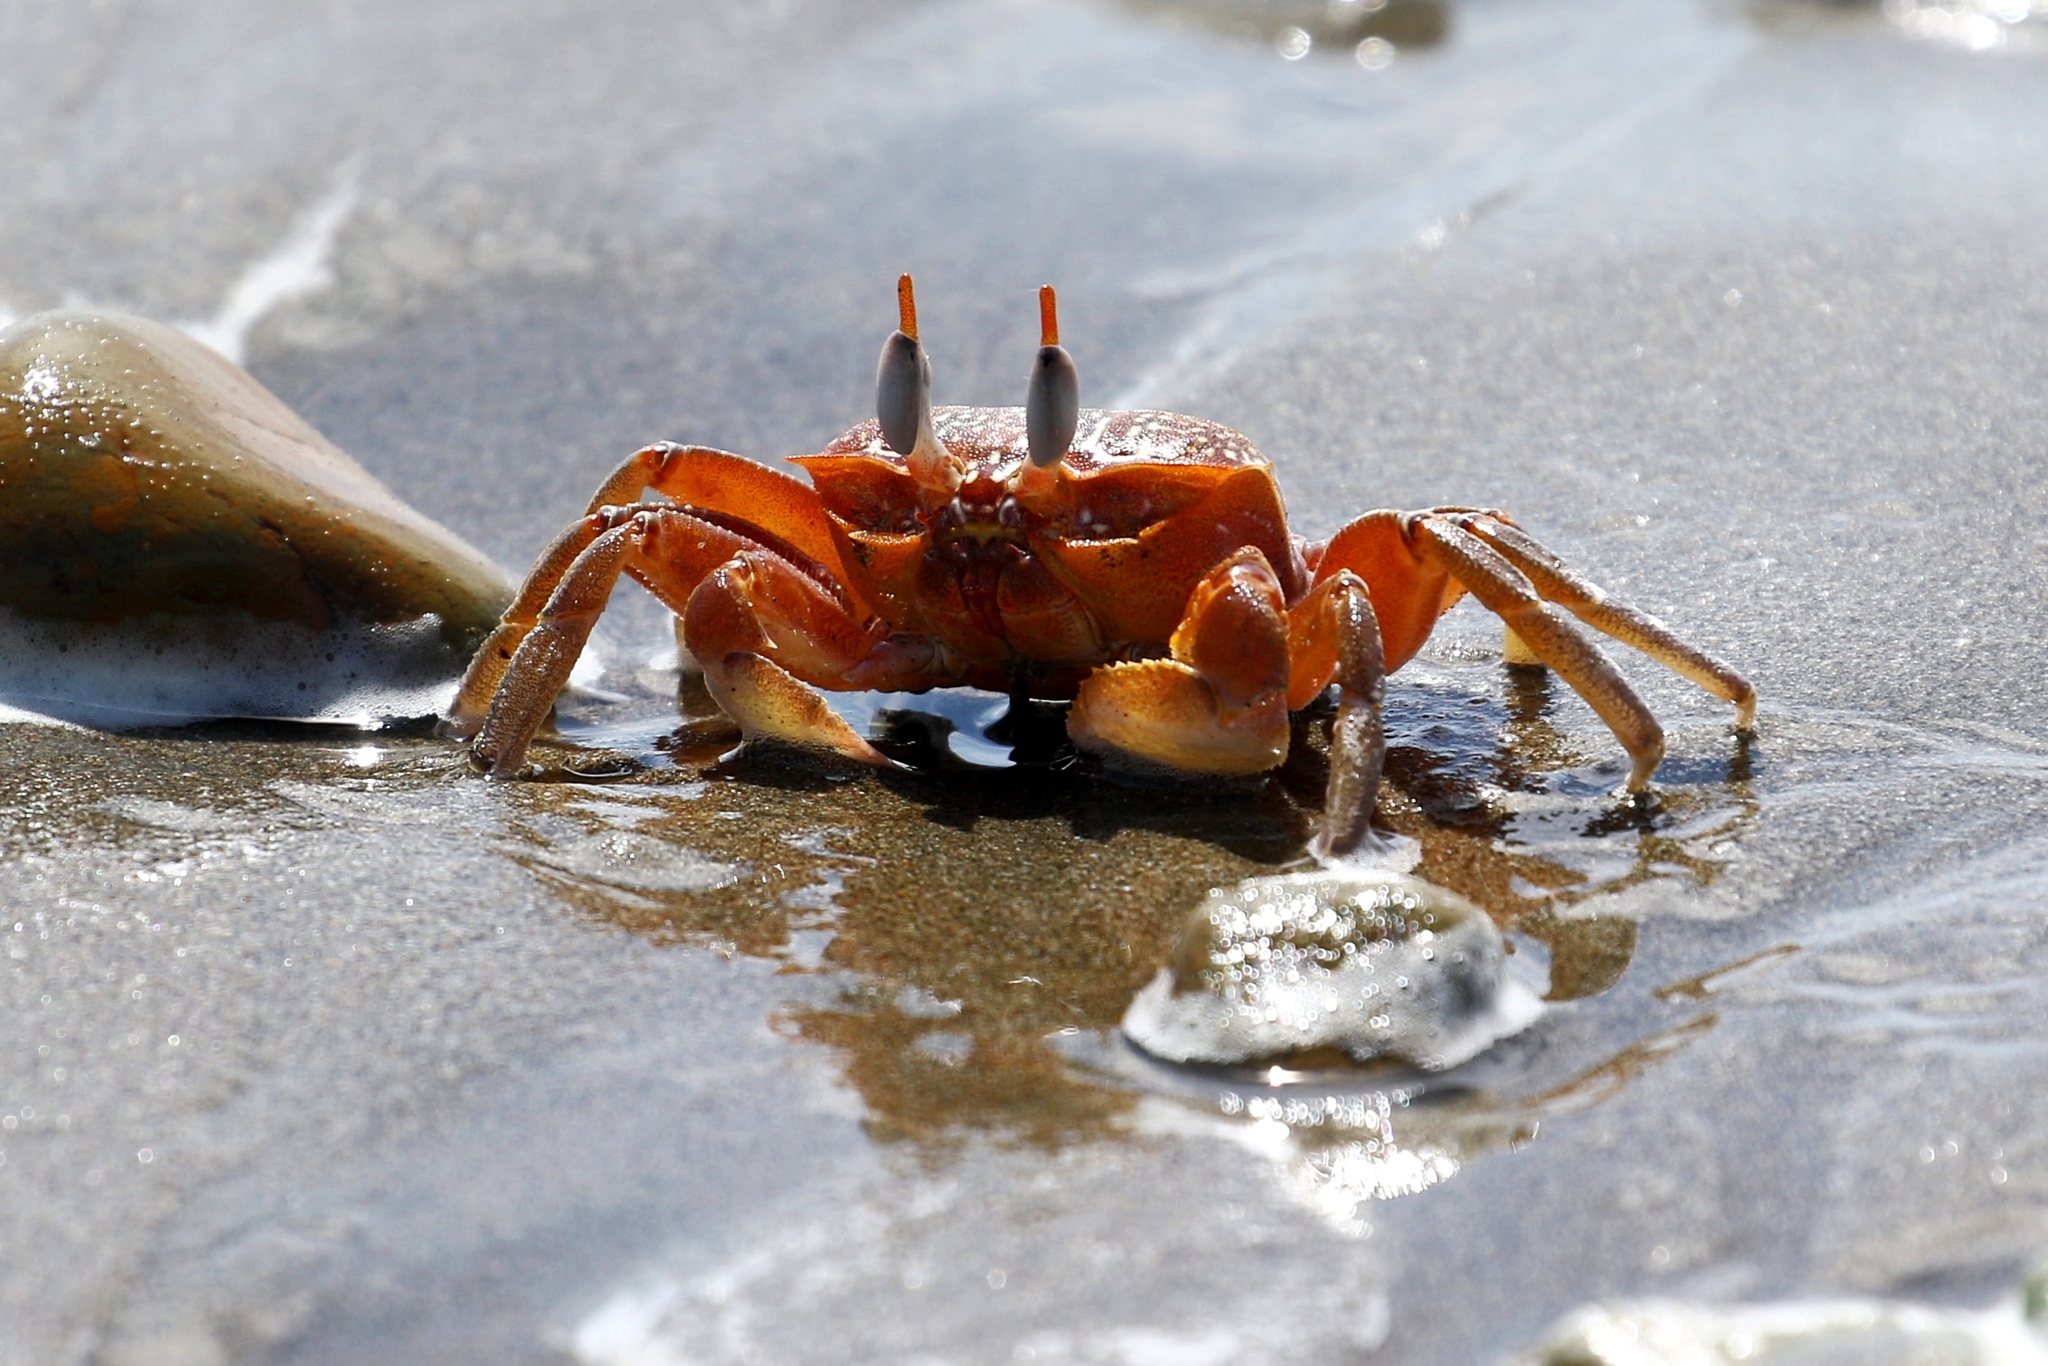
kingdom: Animalia
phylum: Arthropoda
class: Malacostraca
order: Decapoda
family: Ocypodidae
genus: Ocypode
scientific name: Ocypode gaudichaudii
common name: Pacific ghost crab
